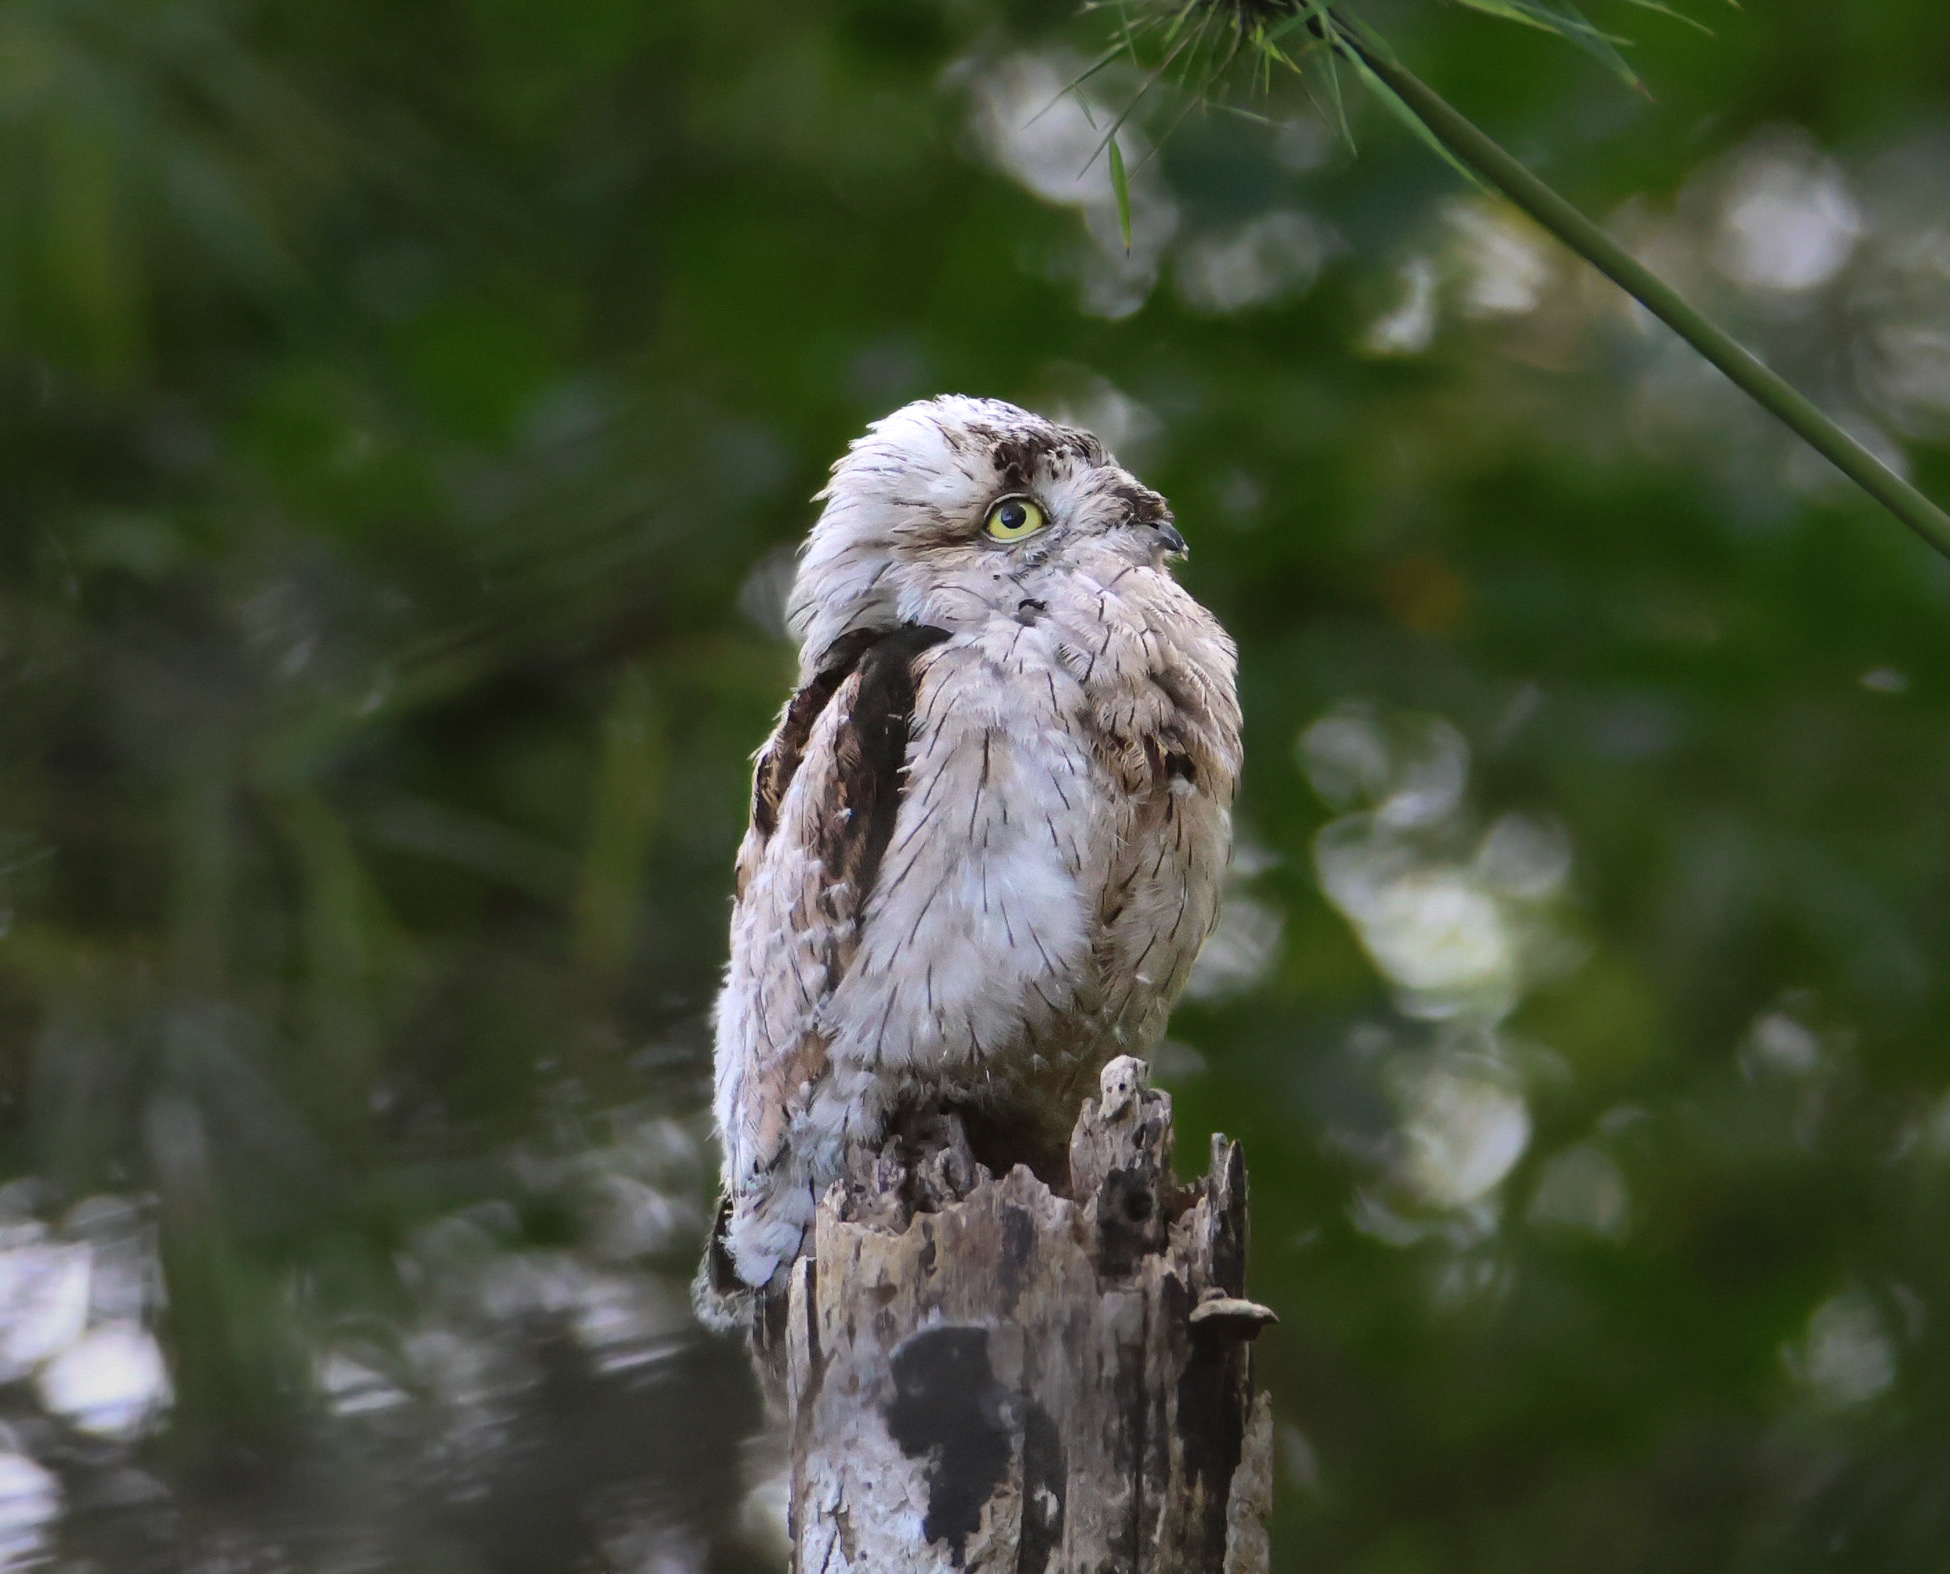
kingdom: Animalia
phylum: Chordata
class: Aves
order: Nyctibiiformes
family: Nyctibiidae
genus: Nyctibius
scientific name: Nyctibius griseus
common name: Common potoo
